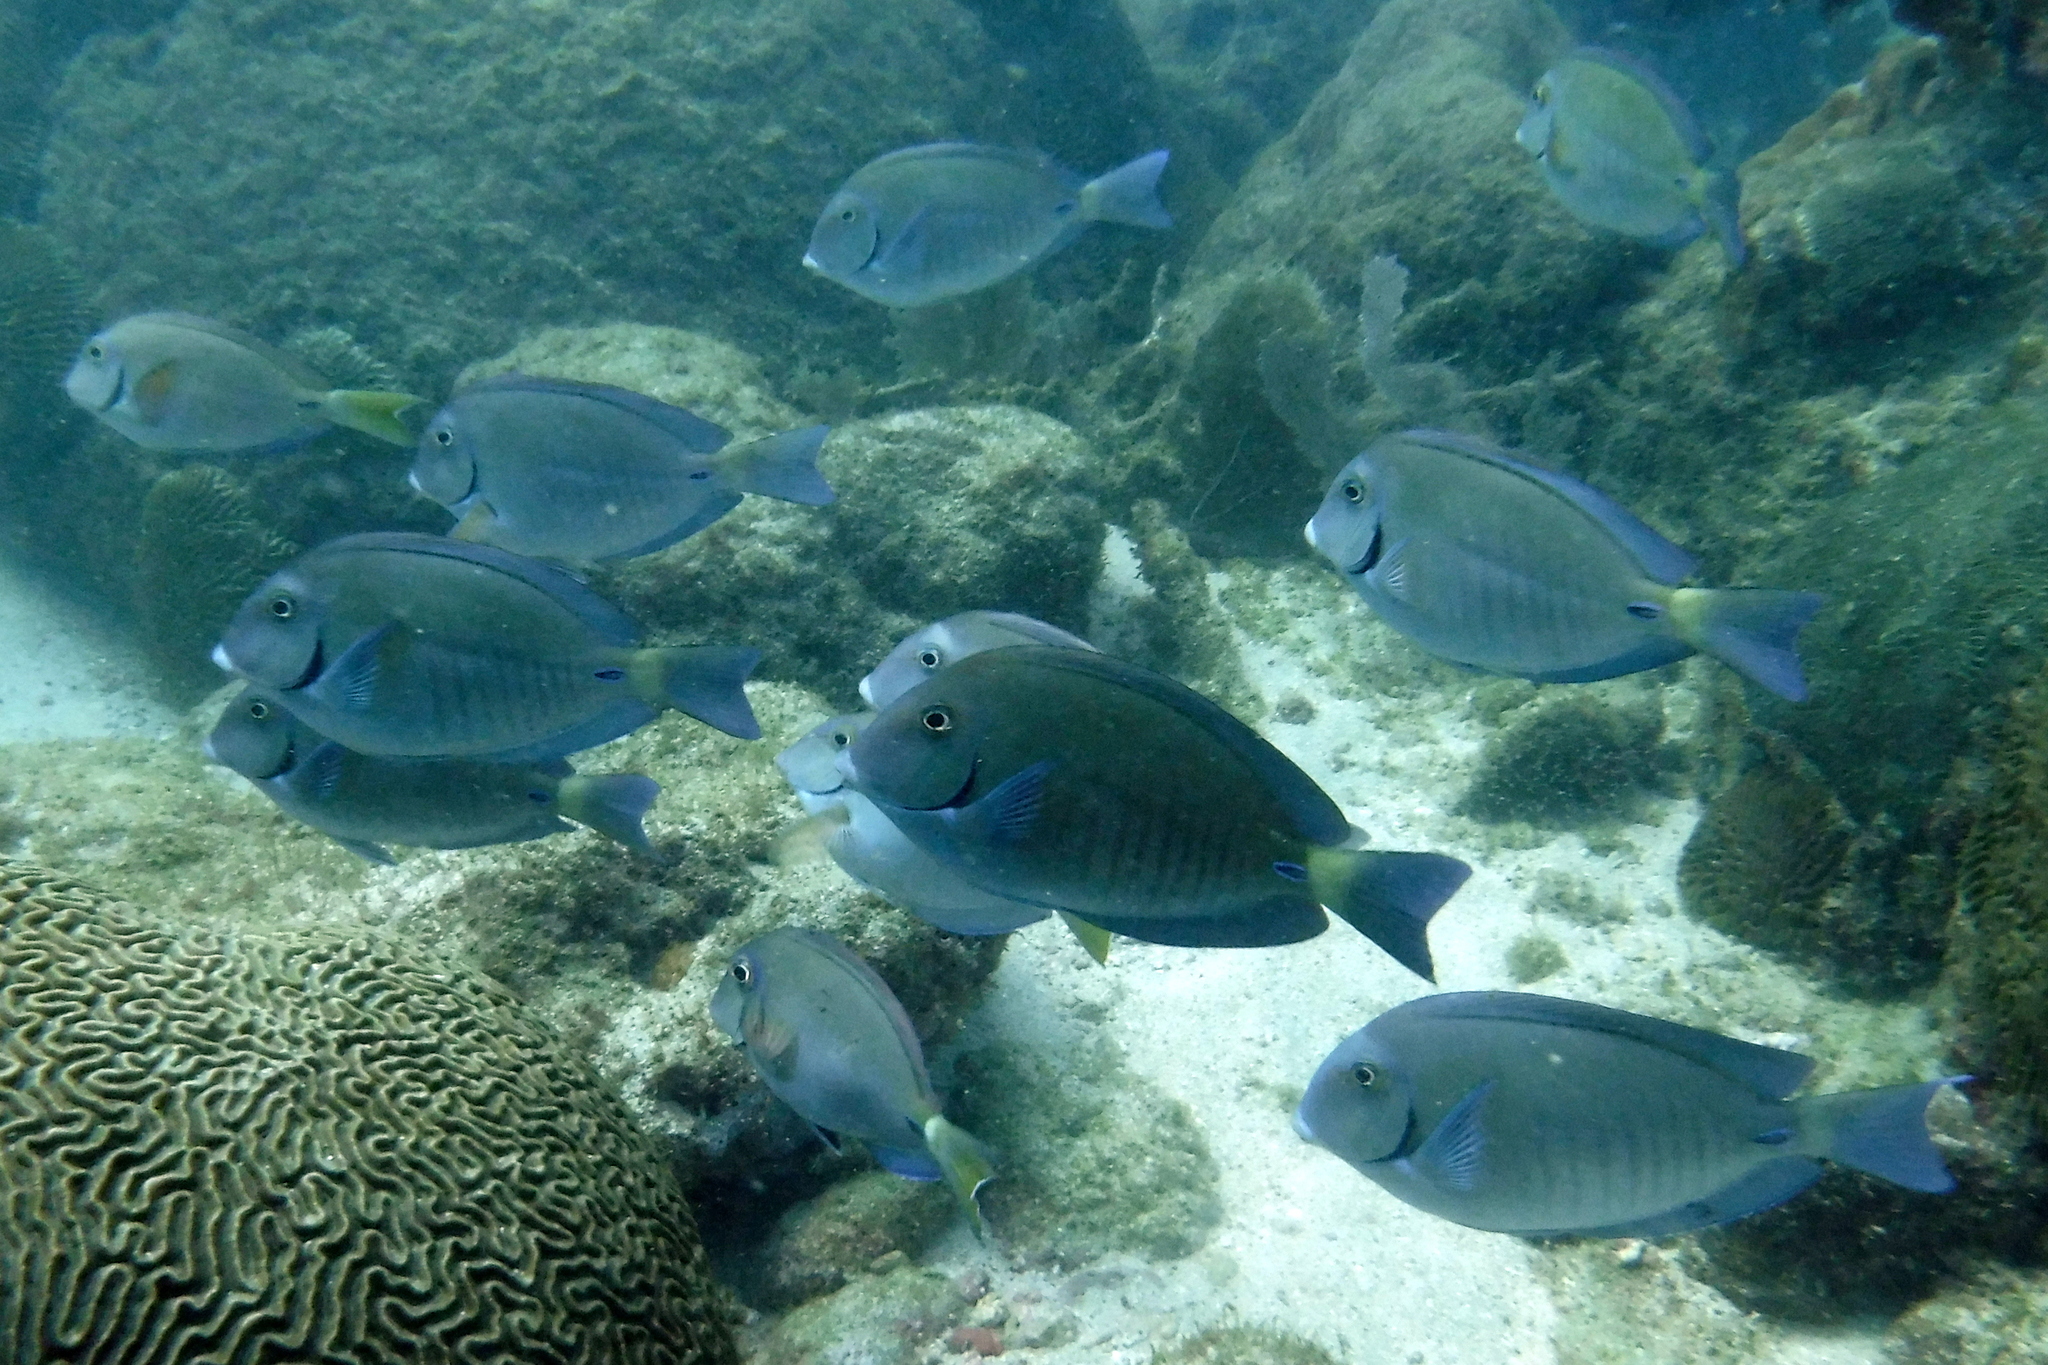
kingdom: Animalia
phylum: Chordata
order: Perciformes
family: Acanthuridae
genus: Acanthurus
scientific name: Acanthurus chirurgus
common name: Doctorfish
